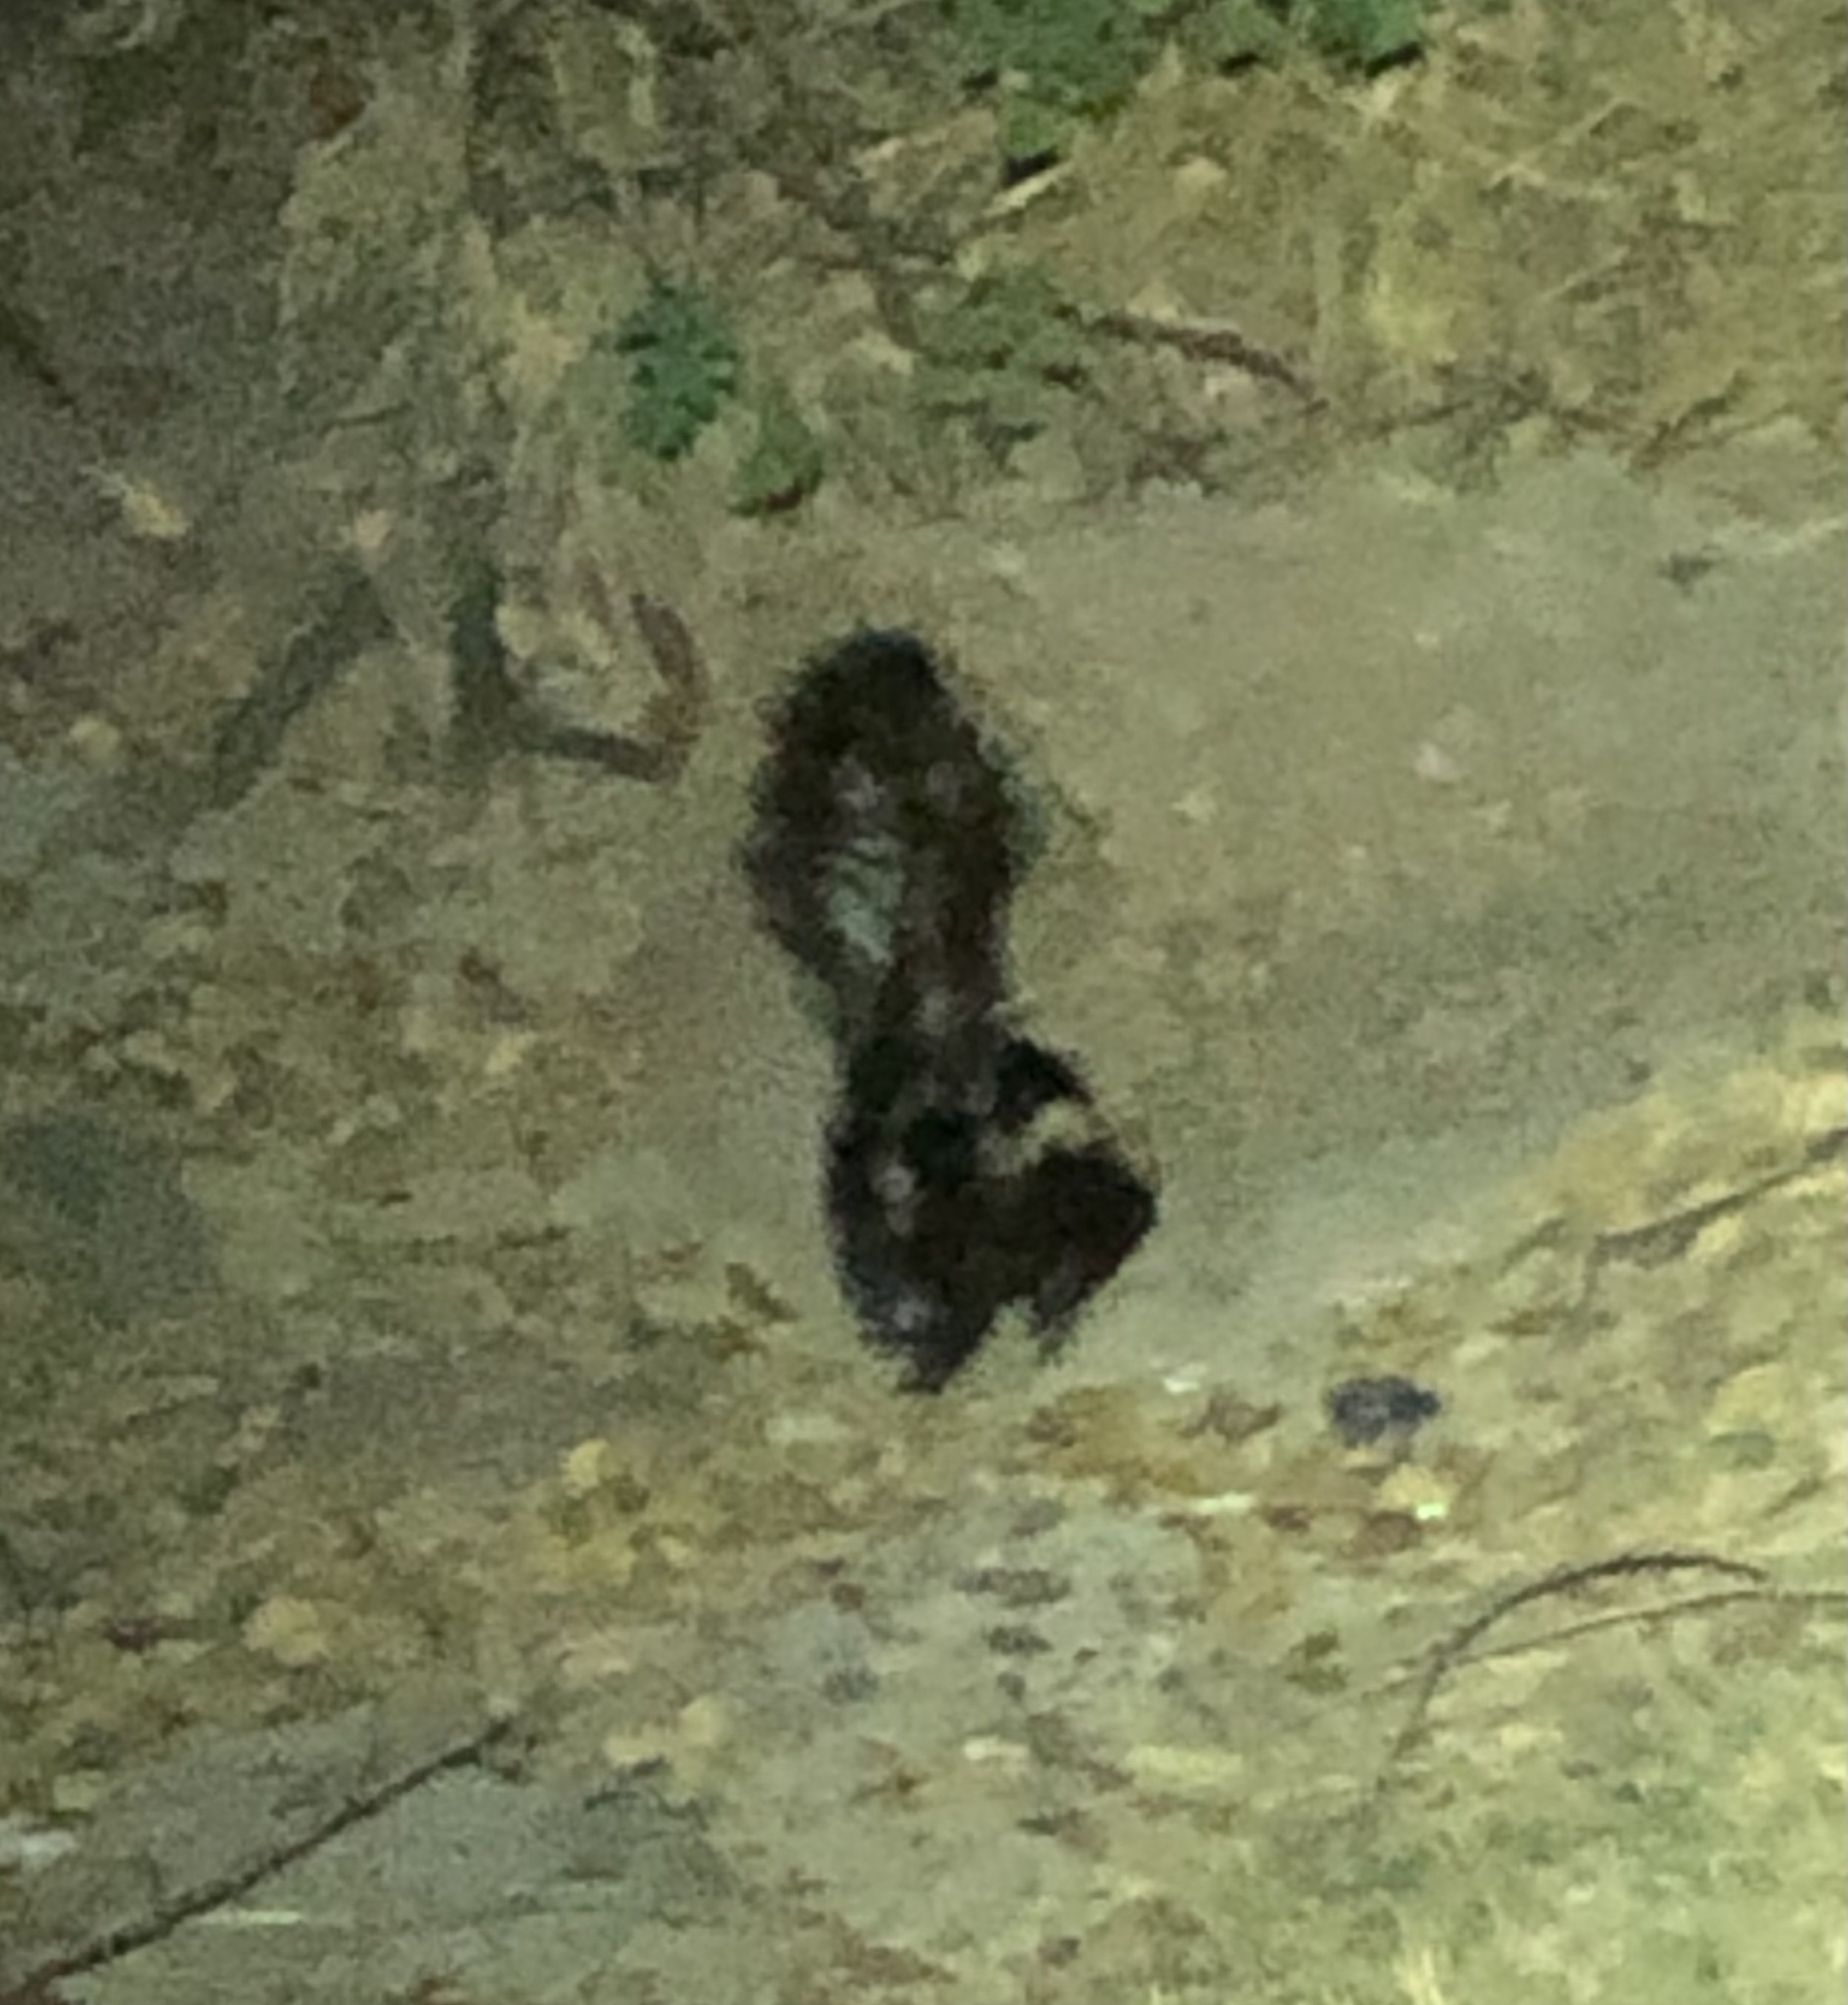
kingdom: Animalia
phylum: Chordata
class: Mammalia
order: Carnivora
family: Mephitidae
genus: Mephitis
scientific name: Mephitis mephitis
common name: Striped skunk
